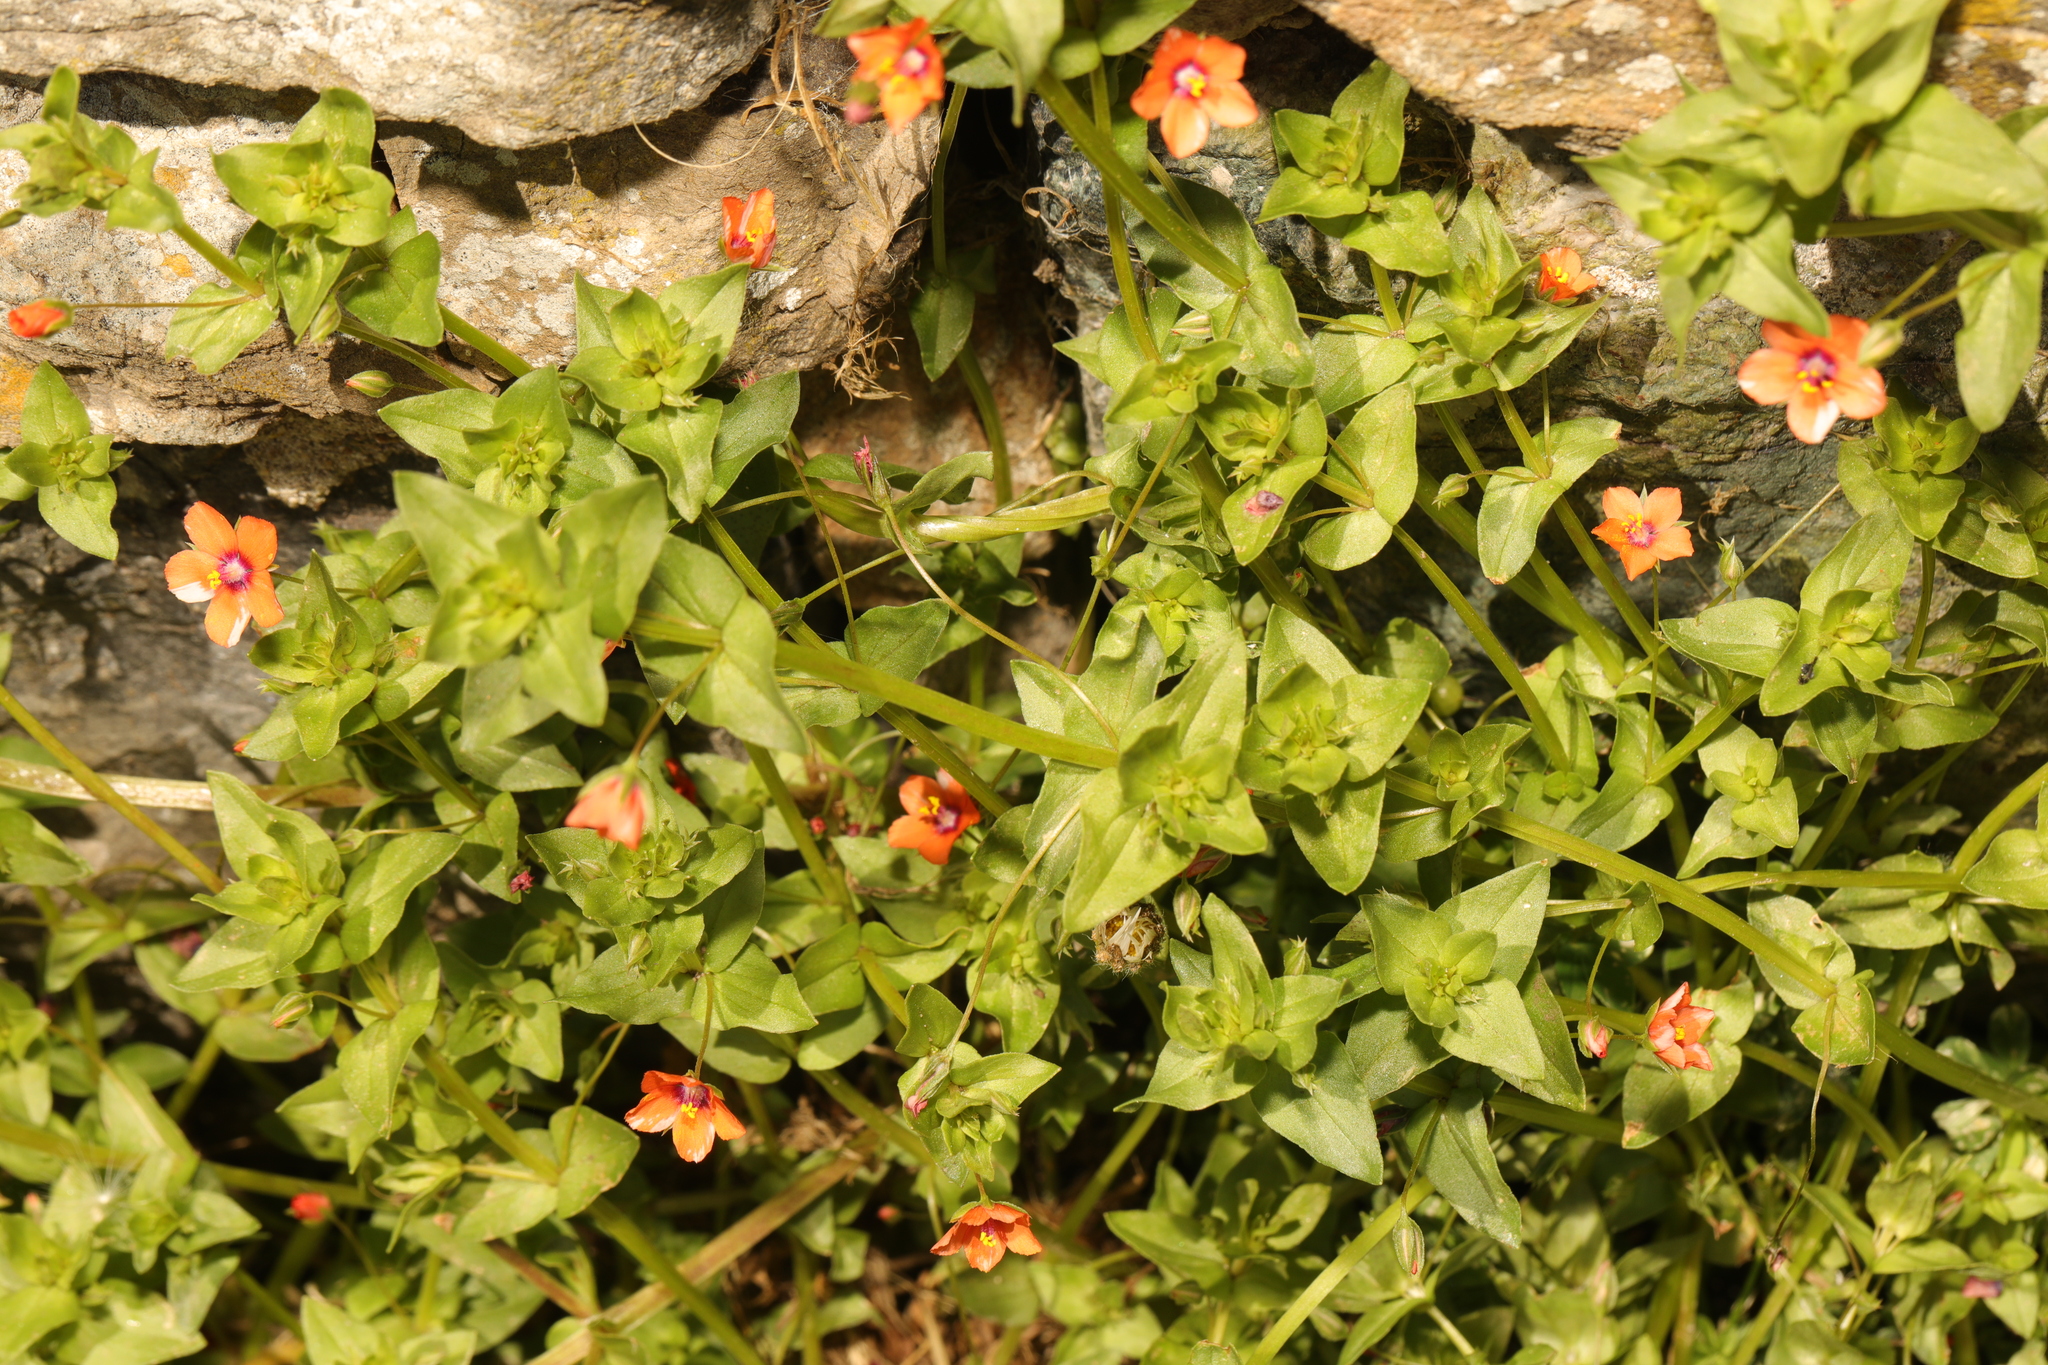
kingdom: Plantae
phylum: Tracheophyta
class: Magnoliopsida
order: Ericales
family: Primulaceae
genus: Lysimachia
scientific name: Lysimachia arvensis
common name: Scarlet pimpernel
